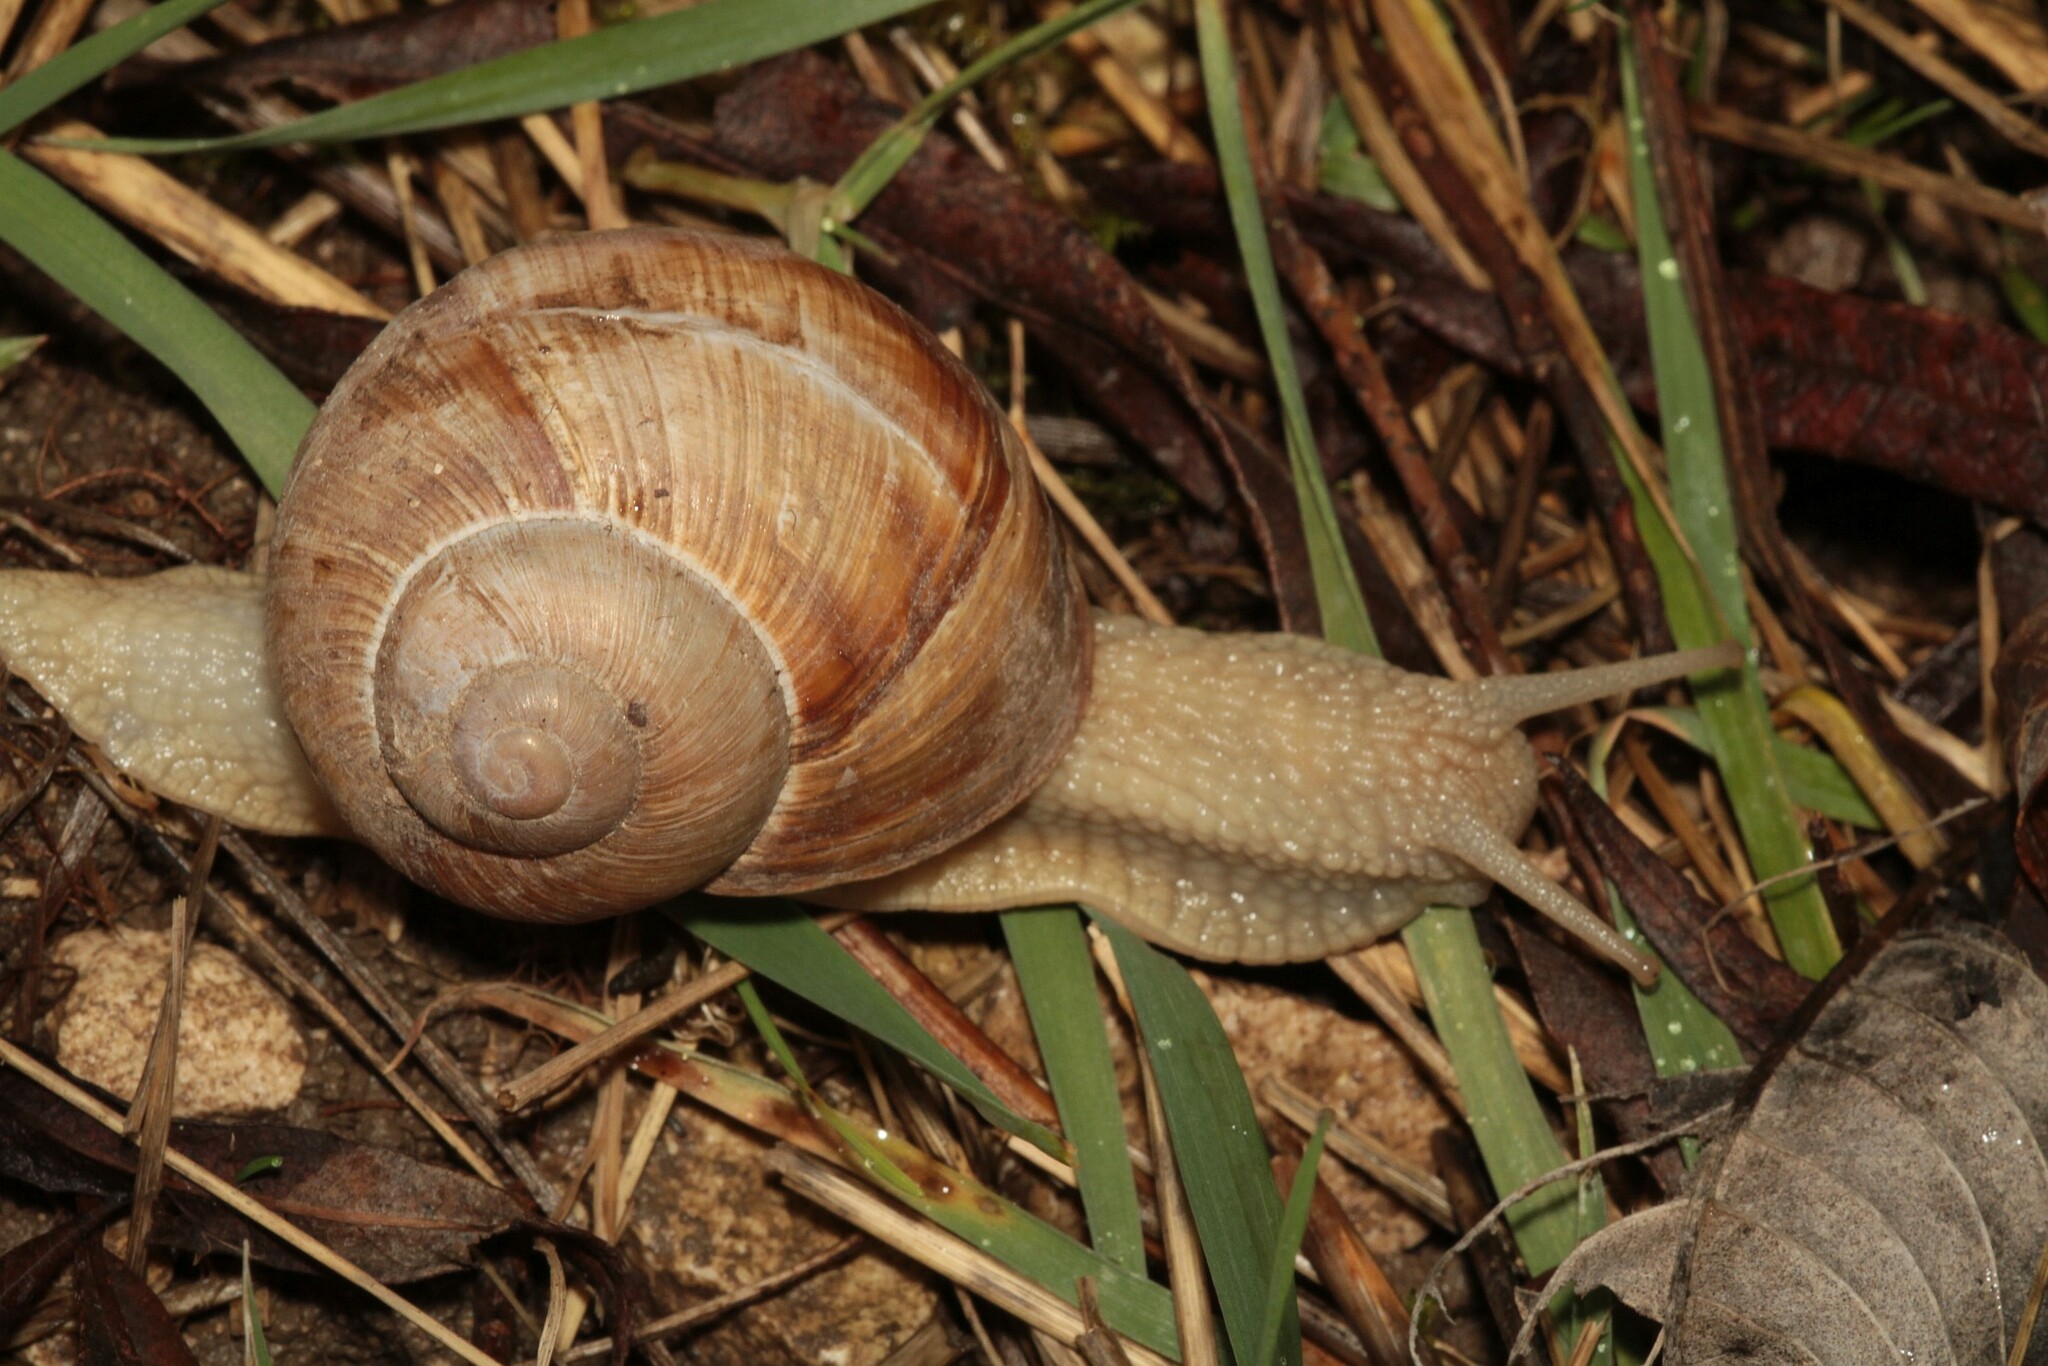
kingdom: Animalia
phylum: Mollusca
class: Gastropoda
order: Stylommatophora
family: Helicidae
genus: Helix
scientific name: Helix pomatia
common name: Roman snail
